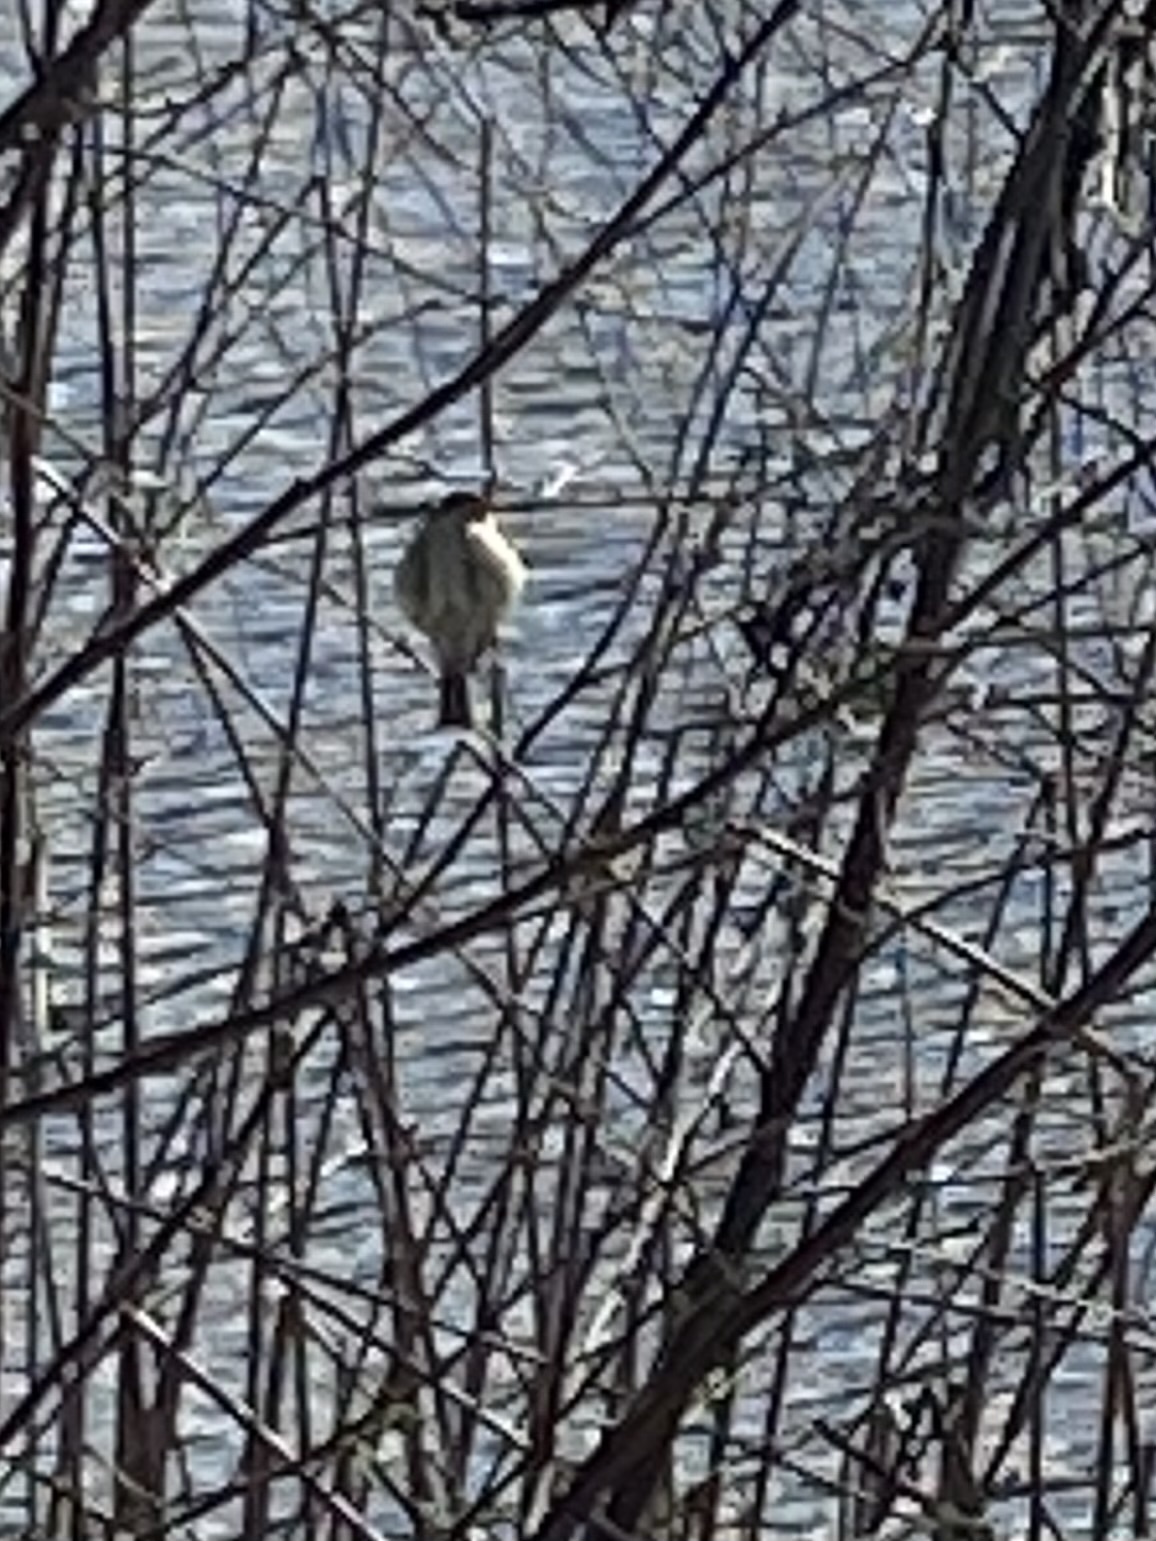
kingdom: Animalia
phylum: Chordata
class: Aves
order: Passeriformes
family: Regulidae
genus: Regulus
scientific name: Regulus calendula
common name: Ruby-crowned kinglet
